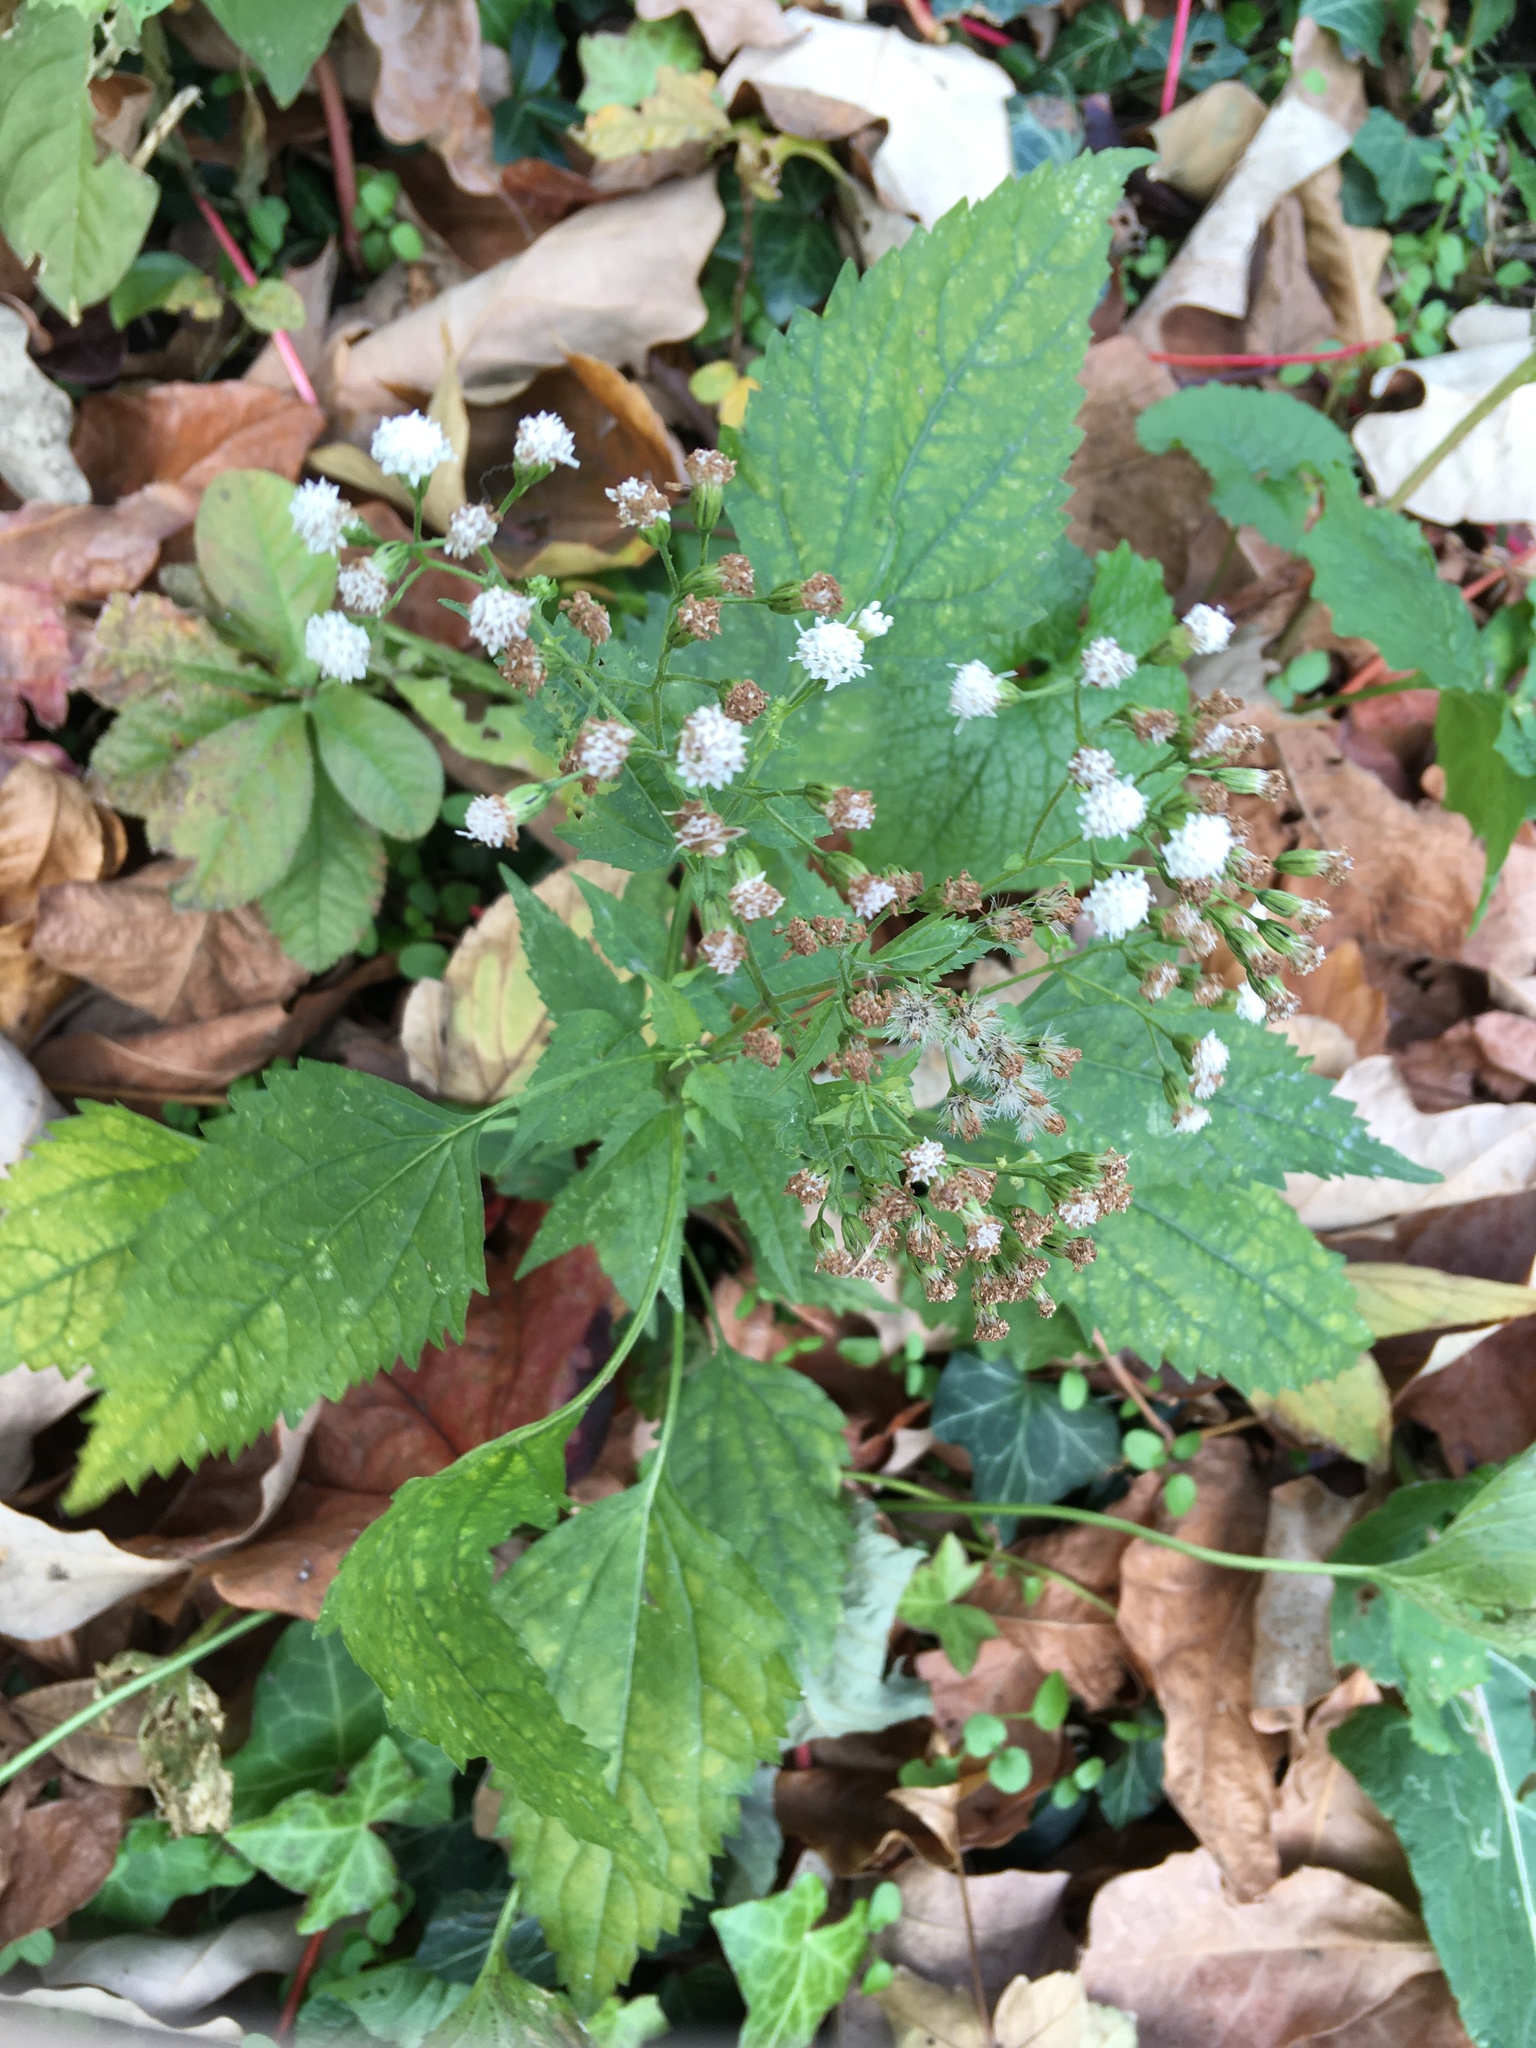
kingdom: Plantae
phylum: Tracheophyta
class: Magnoliopsida
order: Asterales
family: Asteraceae
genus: Ageratina
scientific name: Ageratina altissima
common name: White snakeroot
